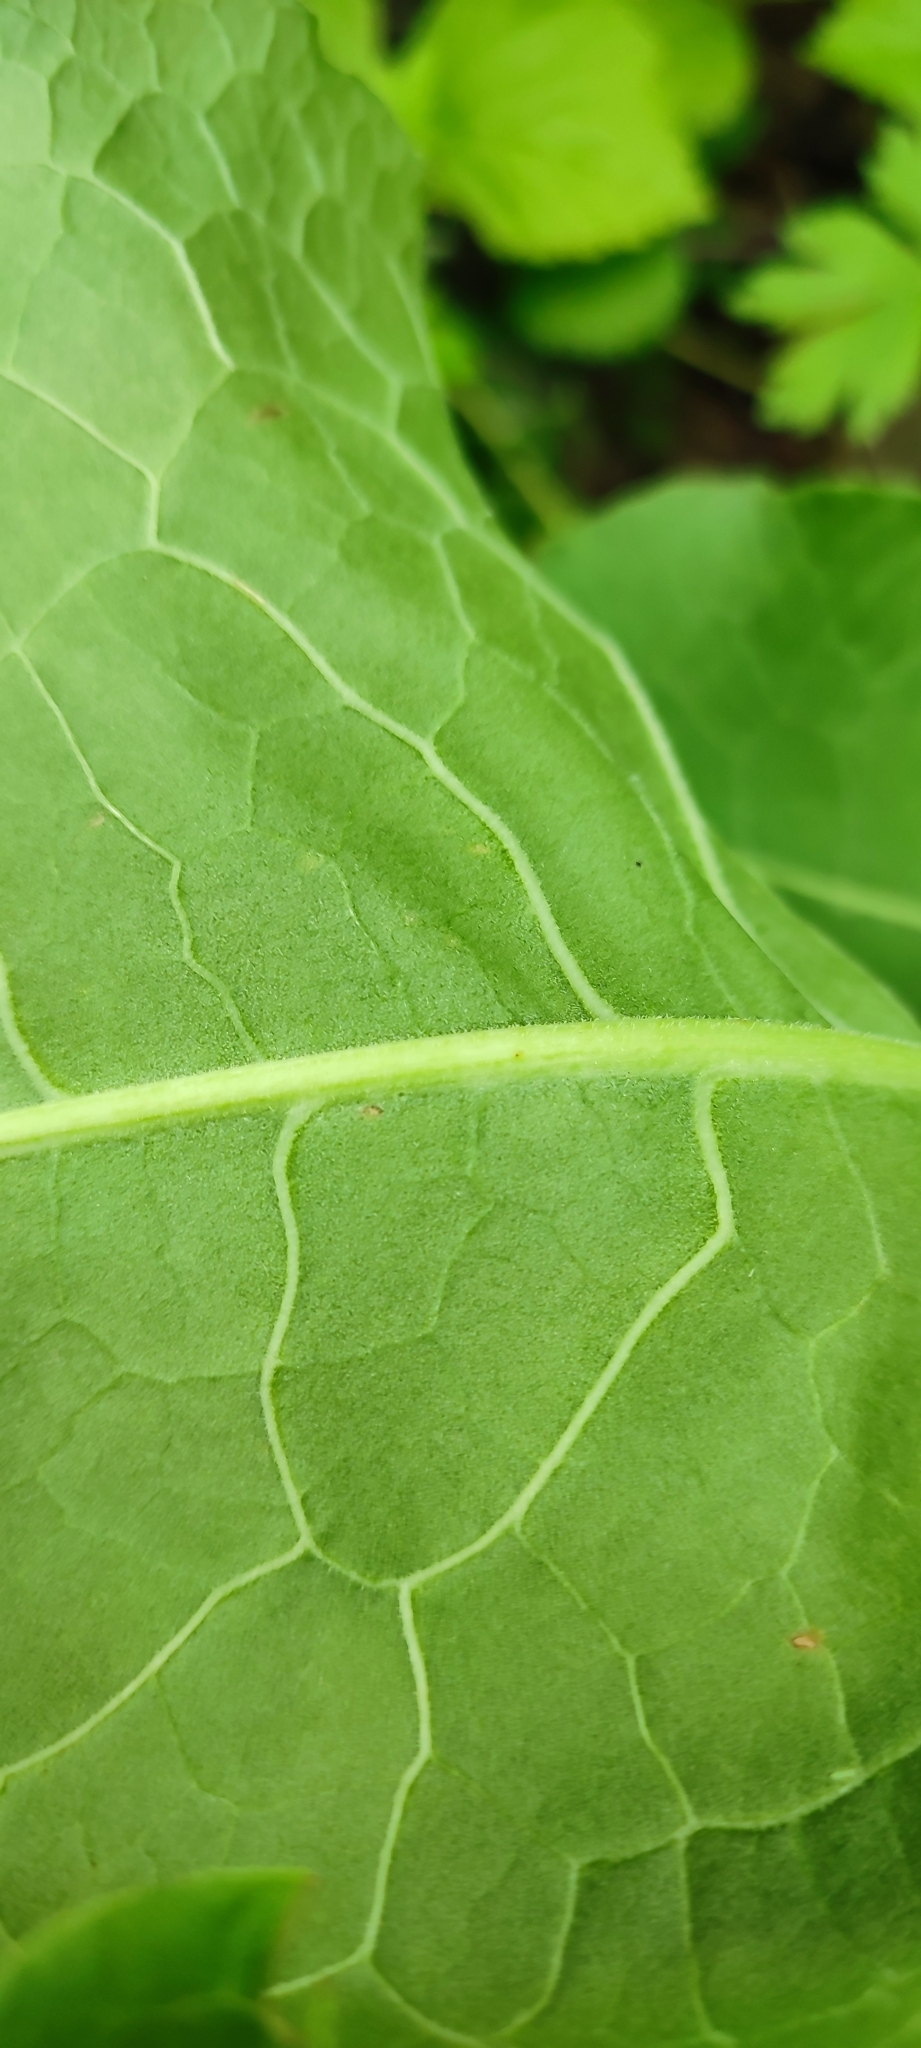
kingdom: Plantae
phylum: Tracheophyta
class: Magnoliopsida
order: Caryophyllales
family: Polygonaceae
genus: Rumex
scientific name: Rumex confertus
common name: Russian dock
